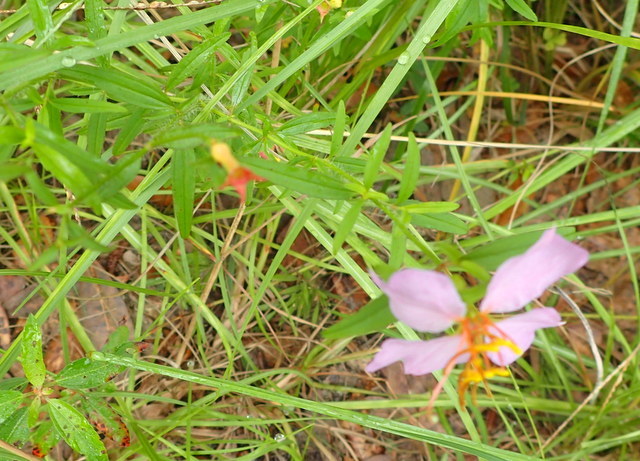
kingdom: Plantae
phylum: Tracheophyta
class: Magnoliopsida
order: Myrtales
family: Melastomataceae
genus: Rhexia
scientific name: Rhexia mariana
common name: Dull meadow-pitcher
